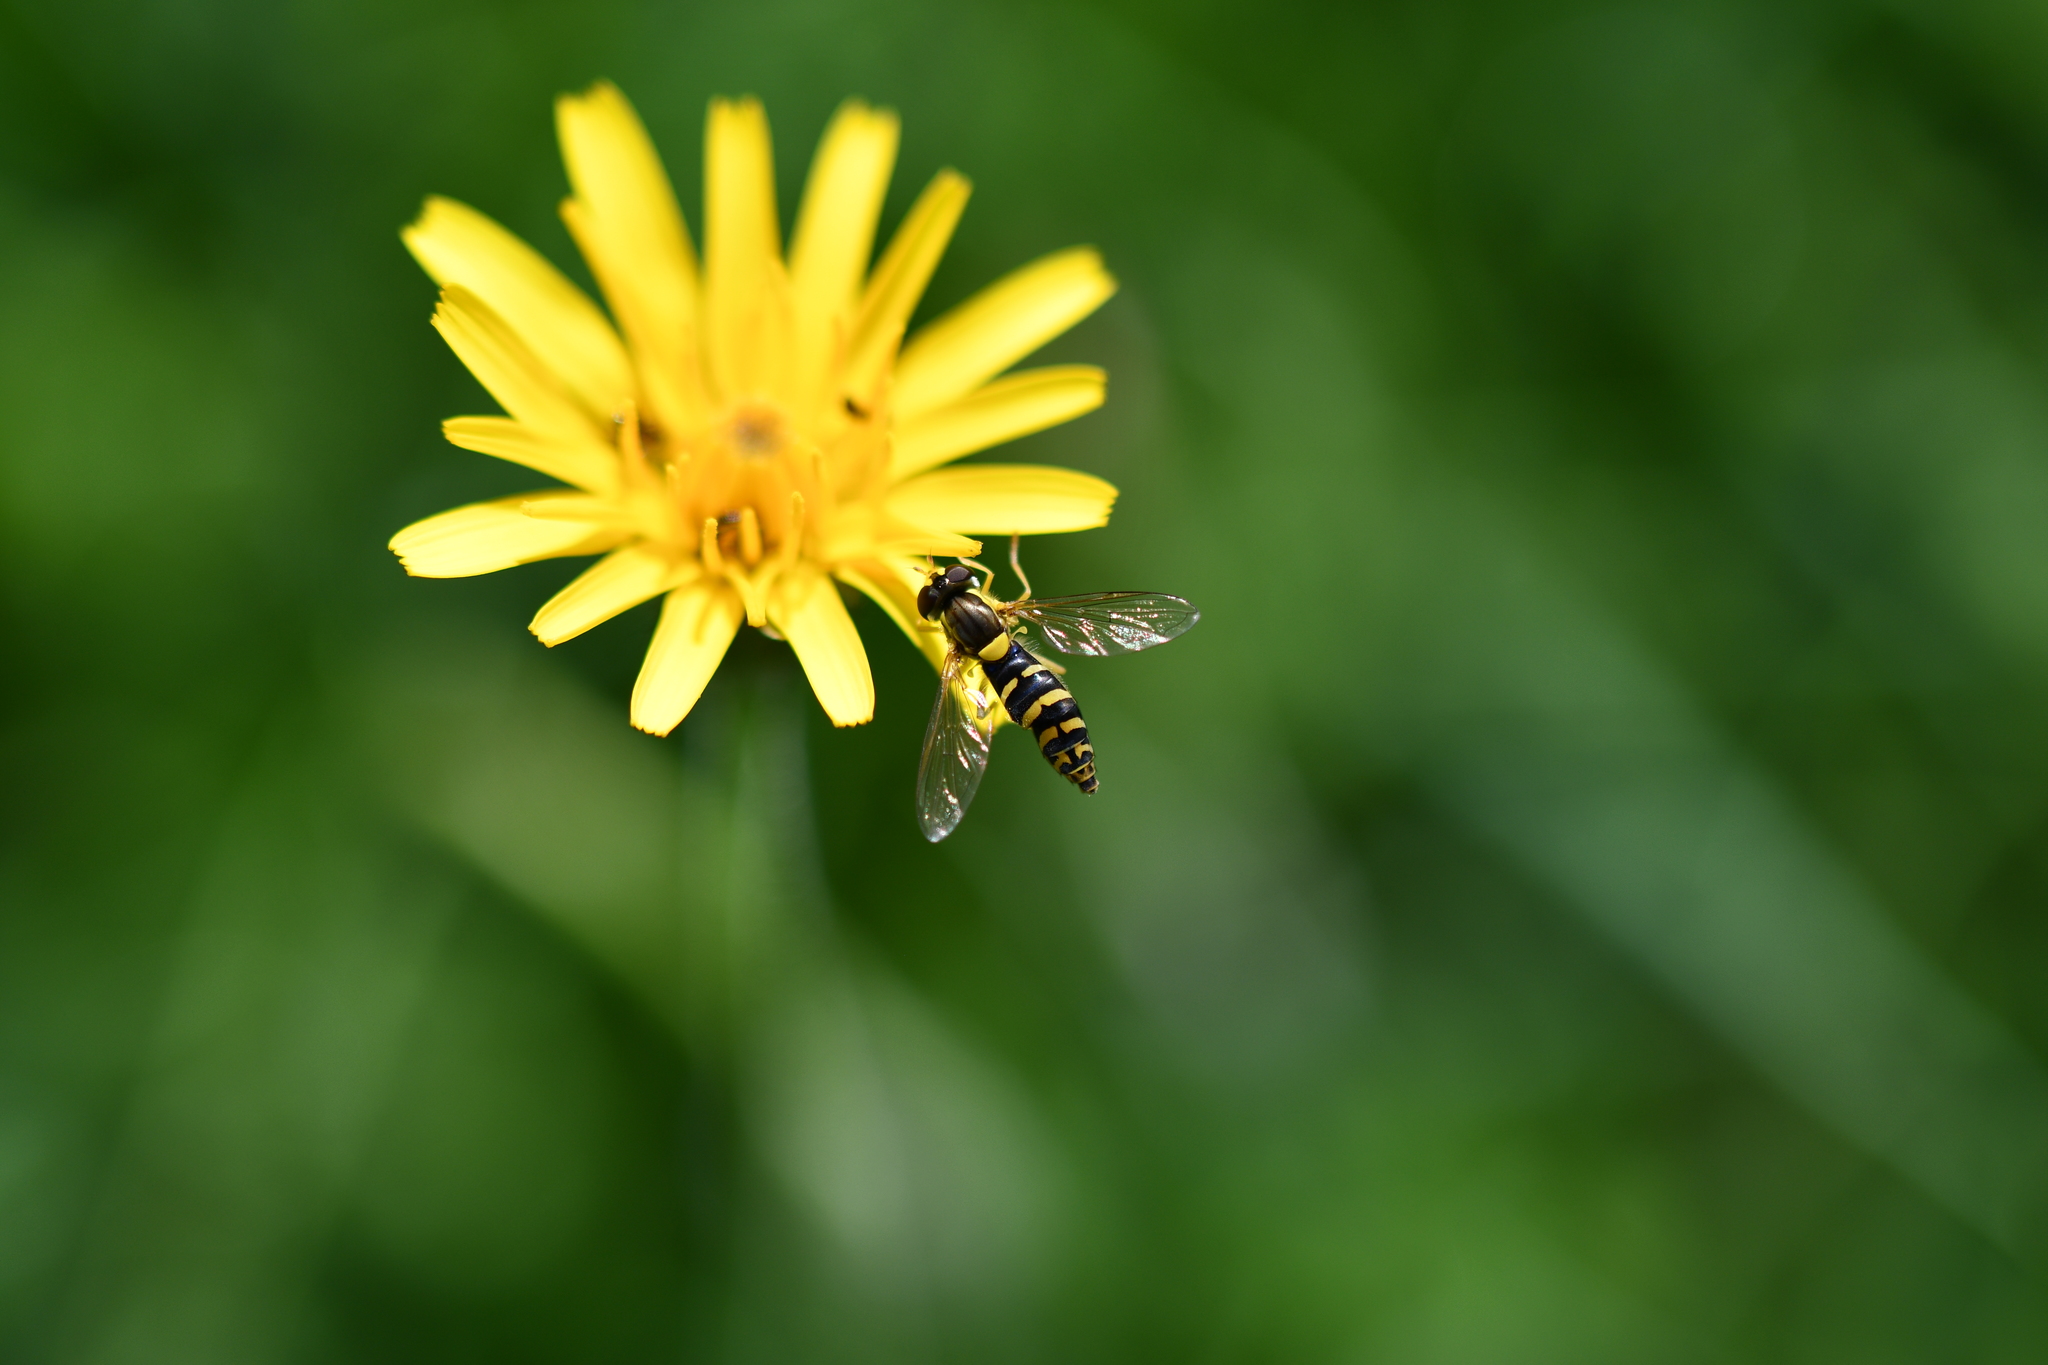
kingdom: Animalia
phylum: Arthropoda
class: Insecta
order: Diptera
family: Syrphidae
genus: Sphaerophoria
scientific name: Sphaerophoria
